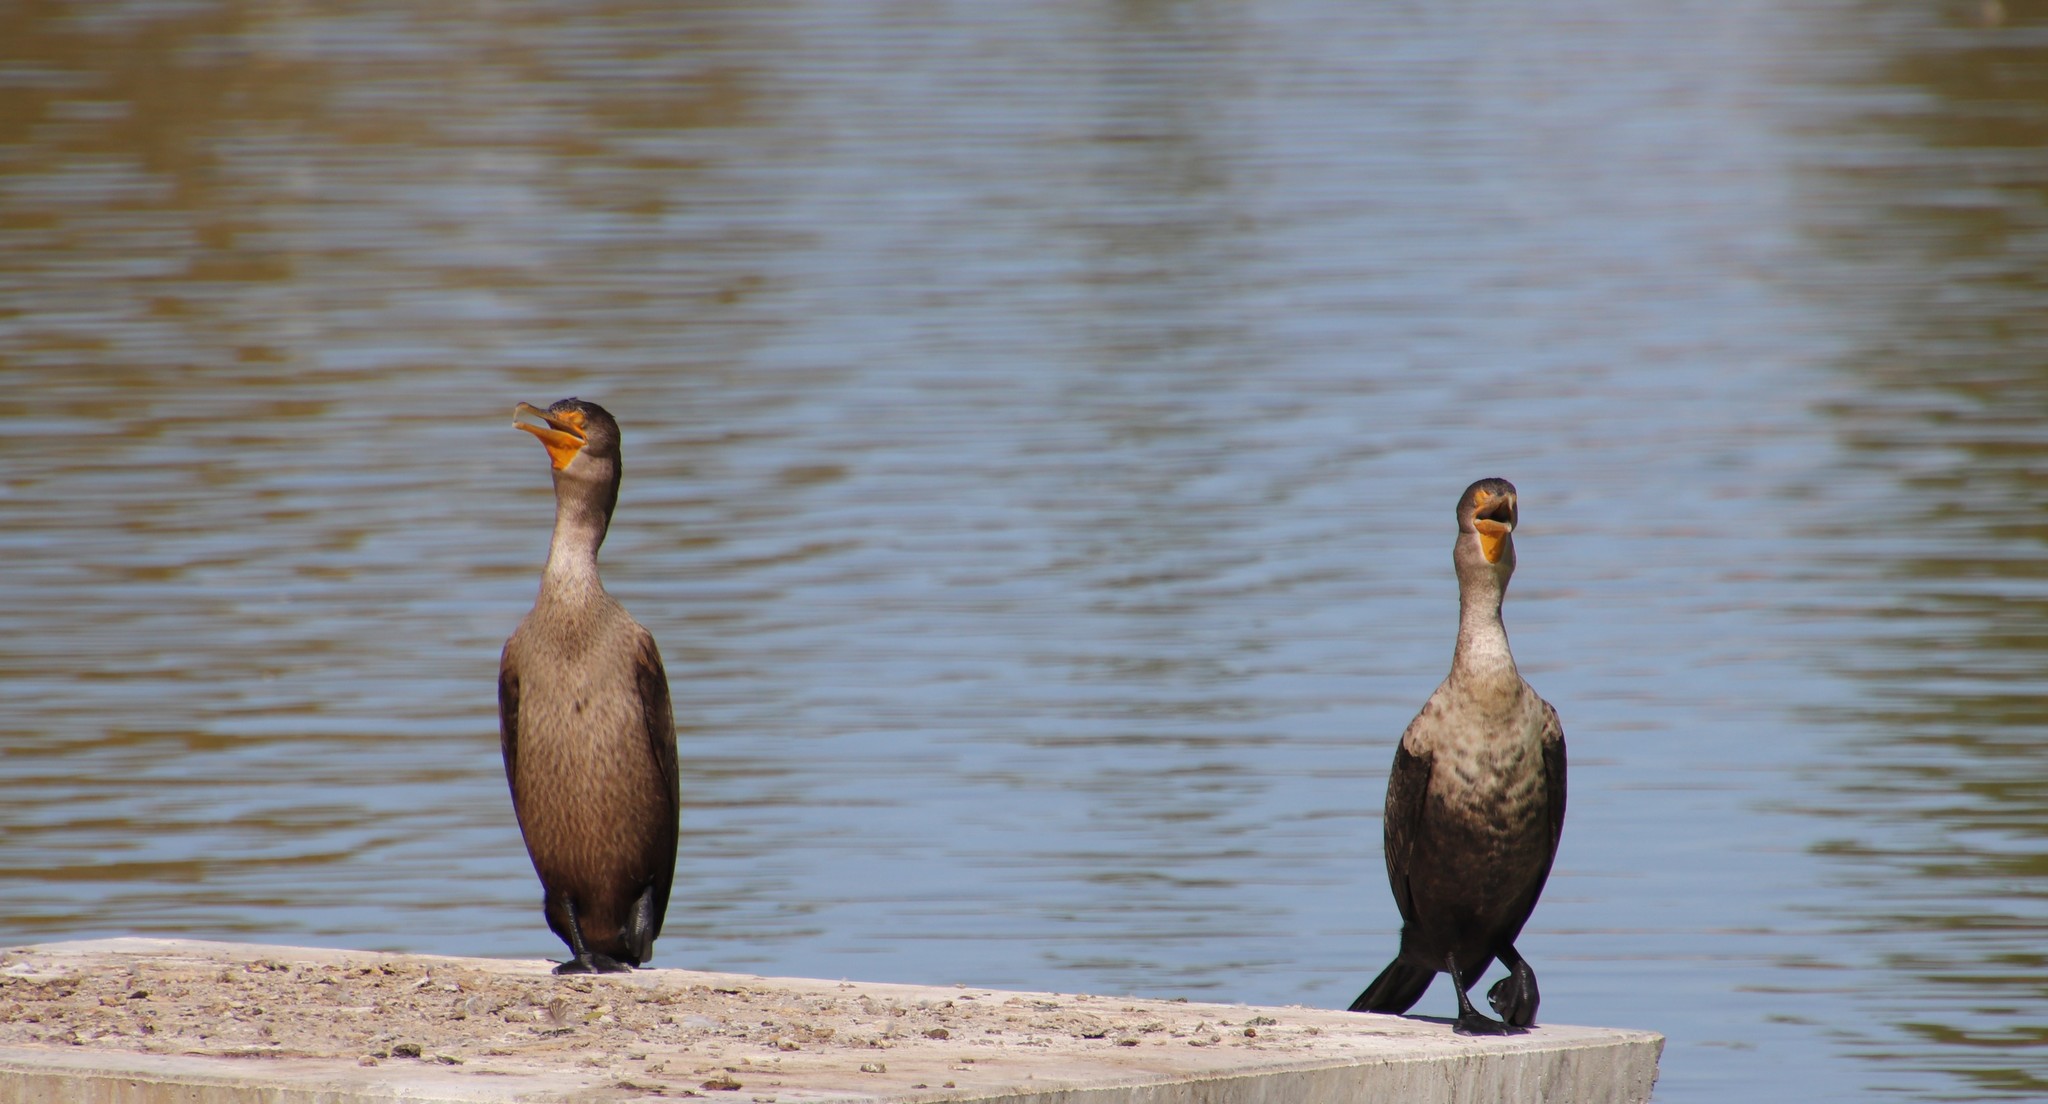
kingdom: Animalia
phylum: Chordata
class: Aves
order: Suliformes
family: Phalacrocoracidae
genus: Phalacrocorax
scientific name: Phalacrocorax auritus
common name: Double-crested cormorant
